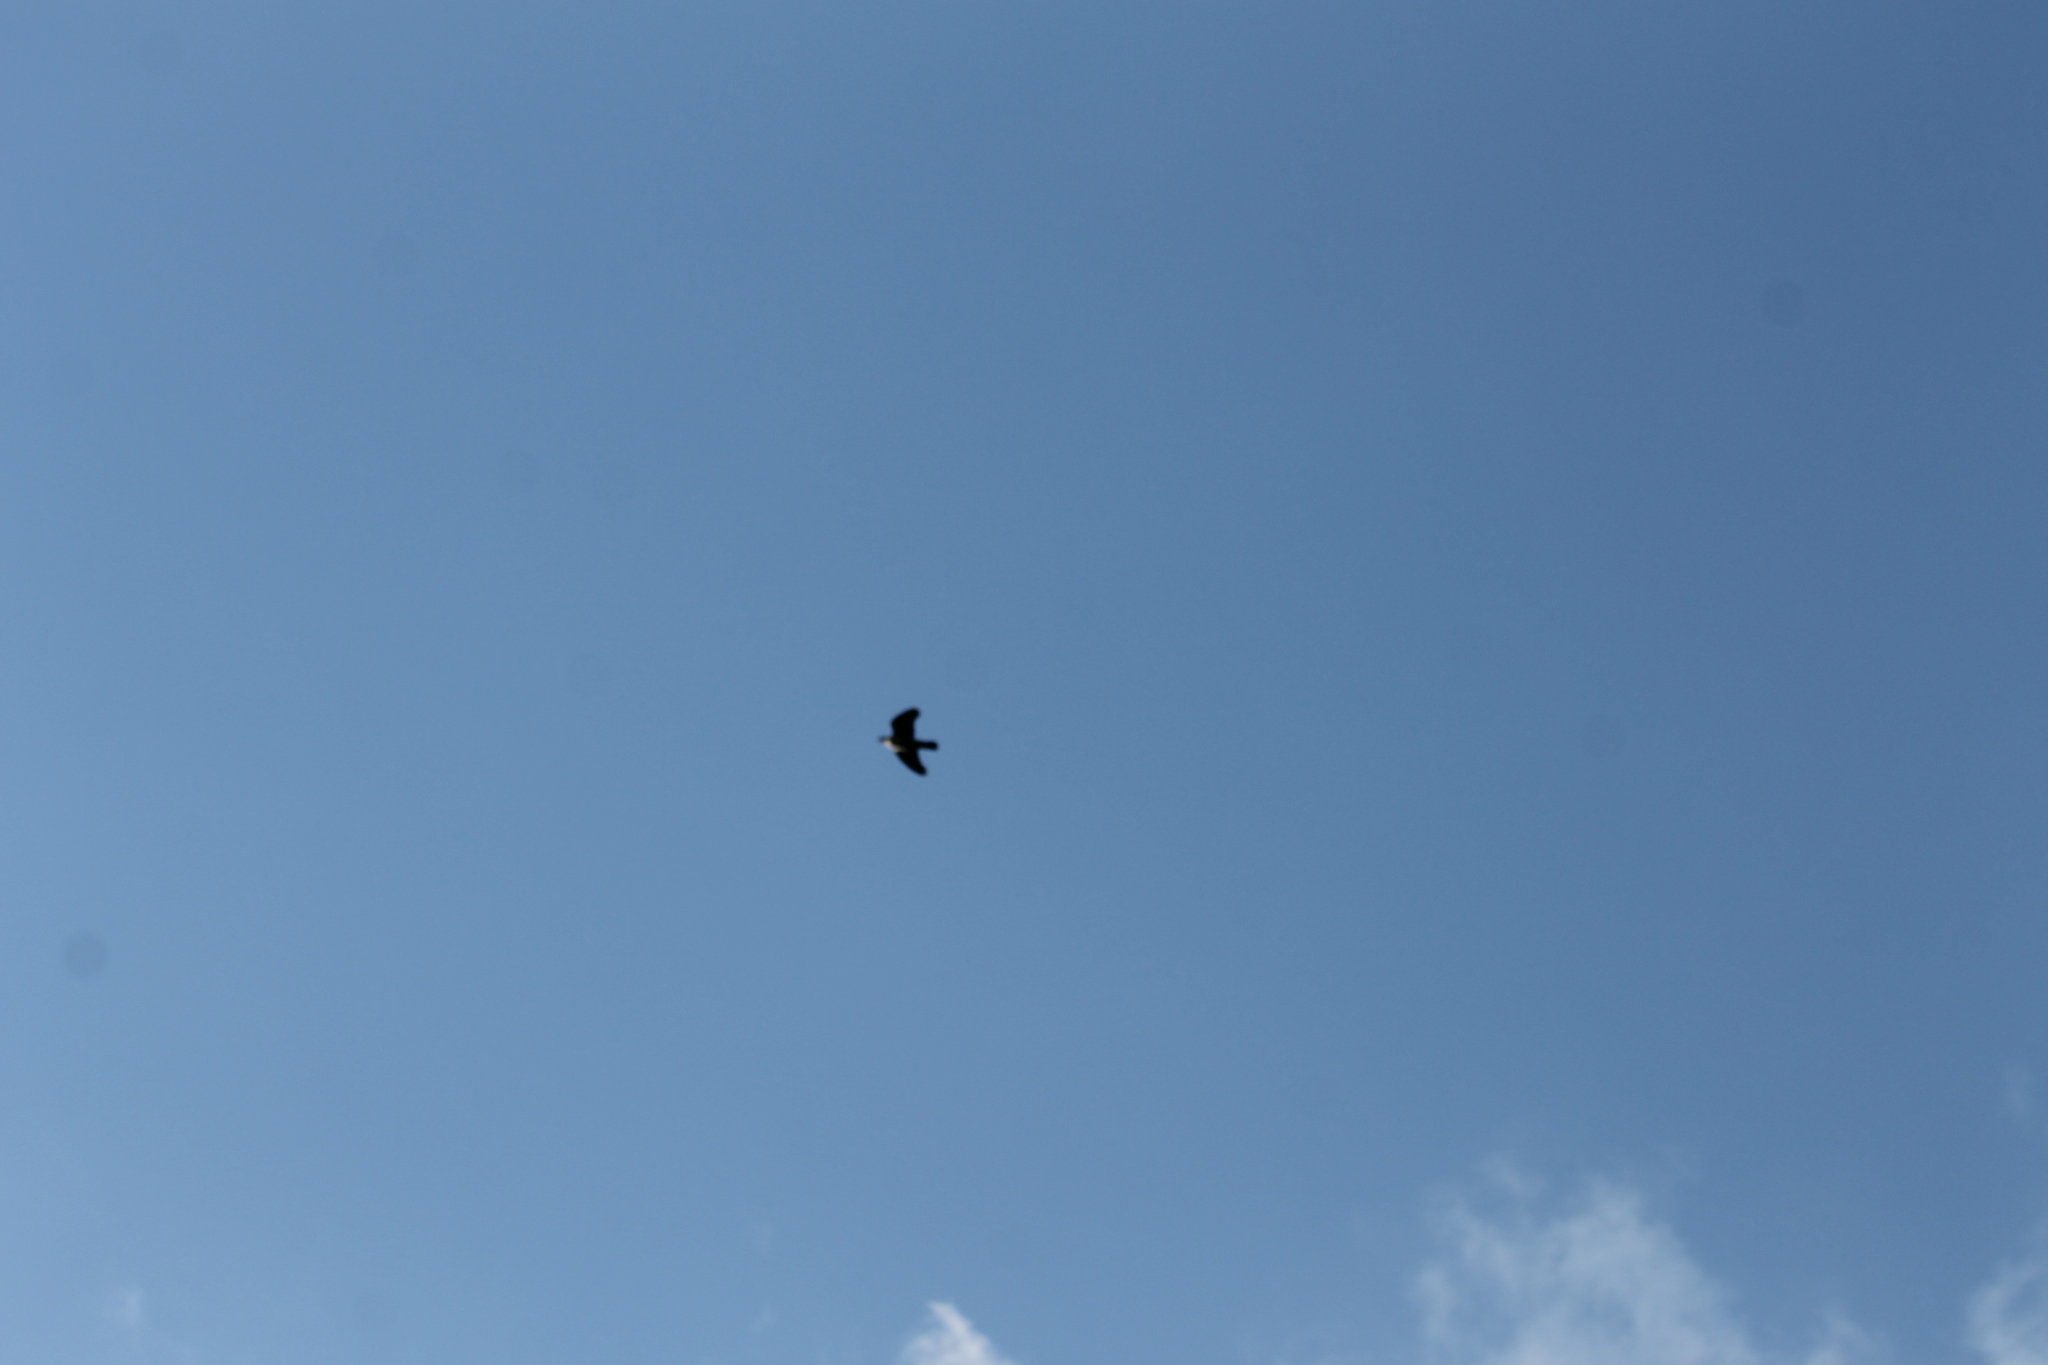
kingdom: Animalia
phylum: Chordata
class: Aves
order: Columbiformes
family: Columbidae
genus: Columba
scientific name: Columba
